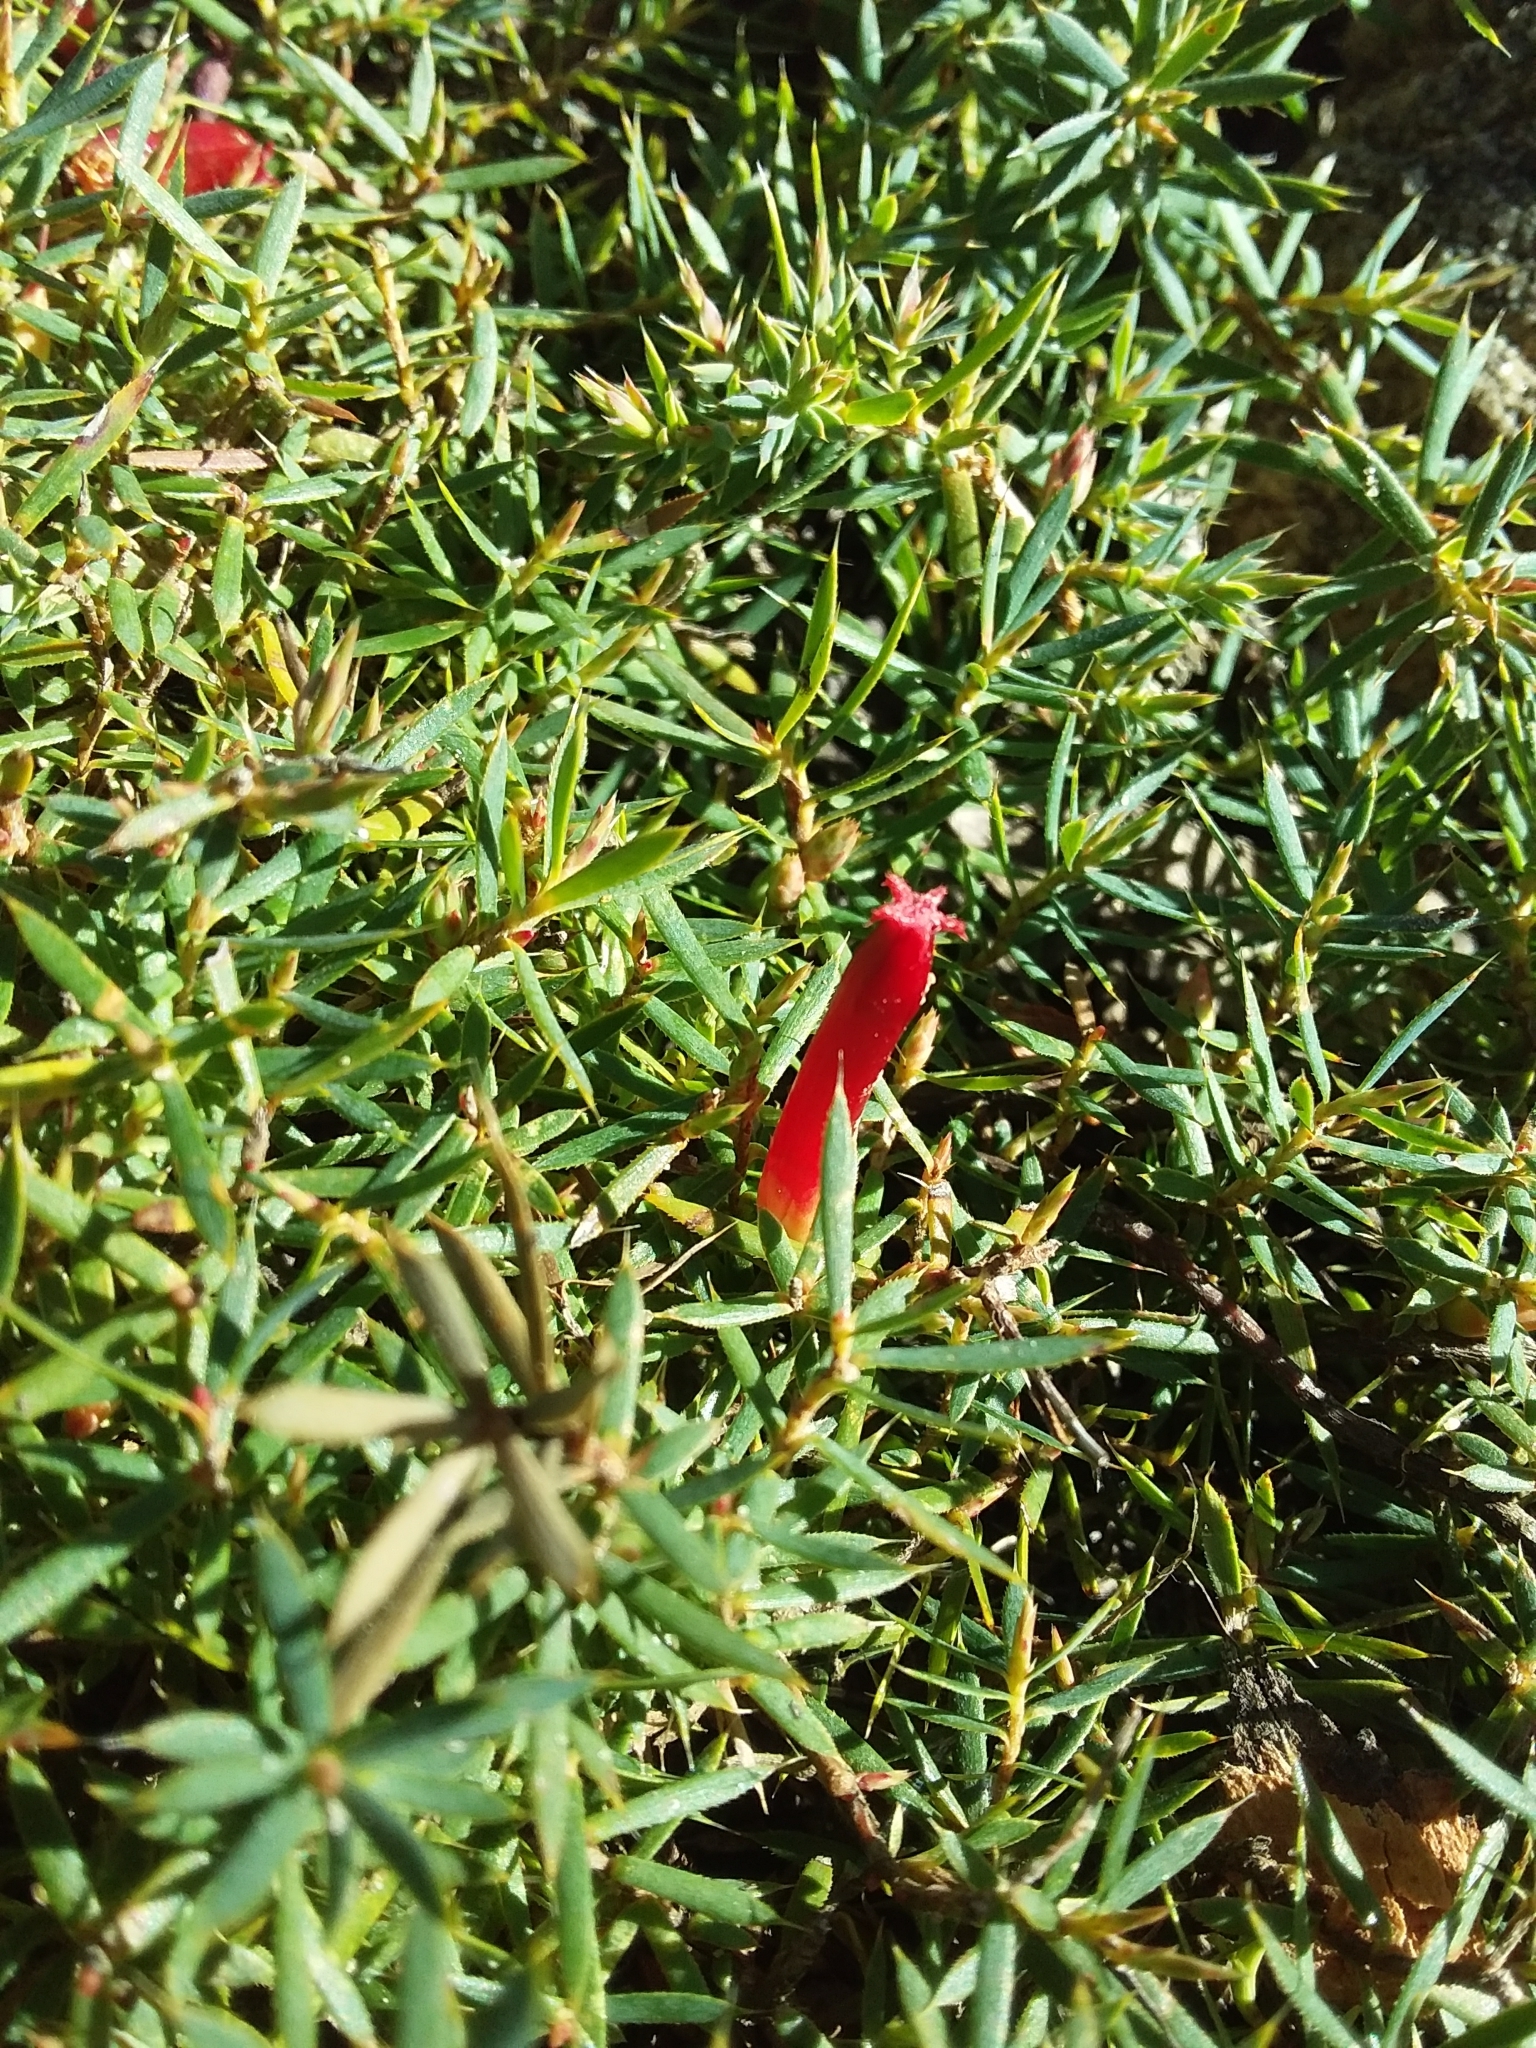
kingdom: Plantae
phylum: Tracheophyta
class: Magnoliopsida
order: Ericales
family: Ericaceae
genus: Styphelia
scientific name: Styphelia humifusa
